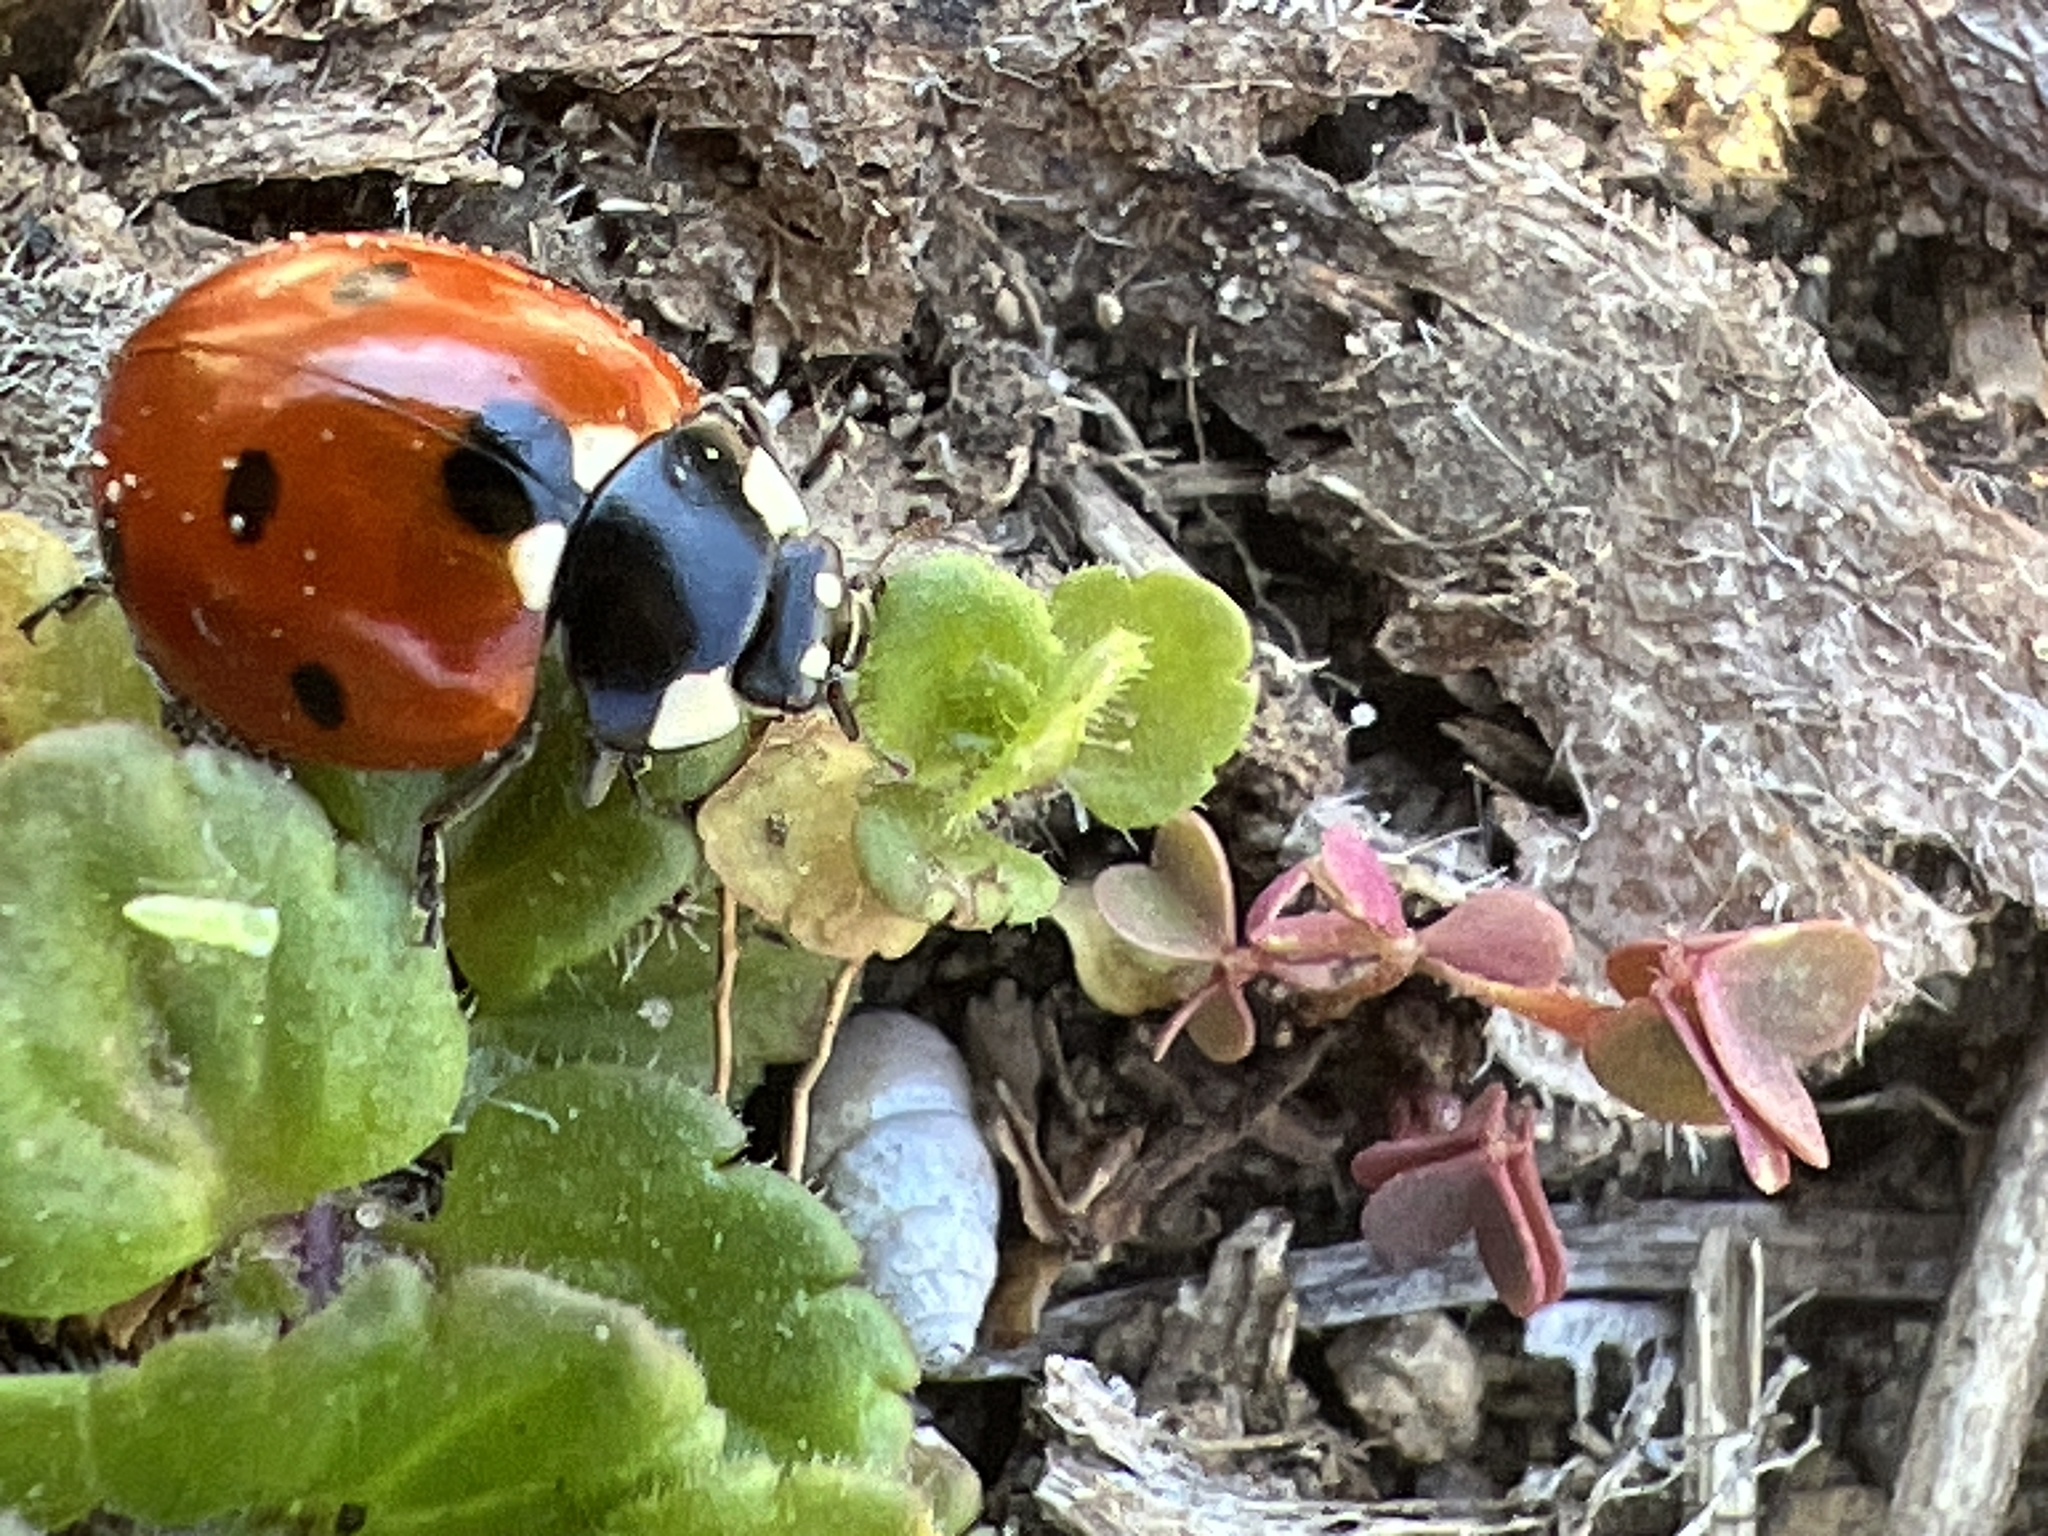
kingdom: Animalia
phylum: Arthropoda
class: Insecta
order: Coleoptera
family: Coccinellidae
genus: Coccinella
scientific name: Coccinella septempunctata
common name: Sevenspotted lady beetle
